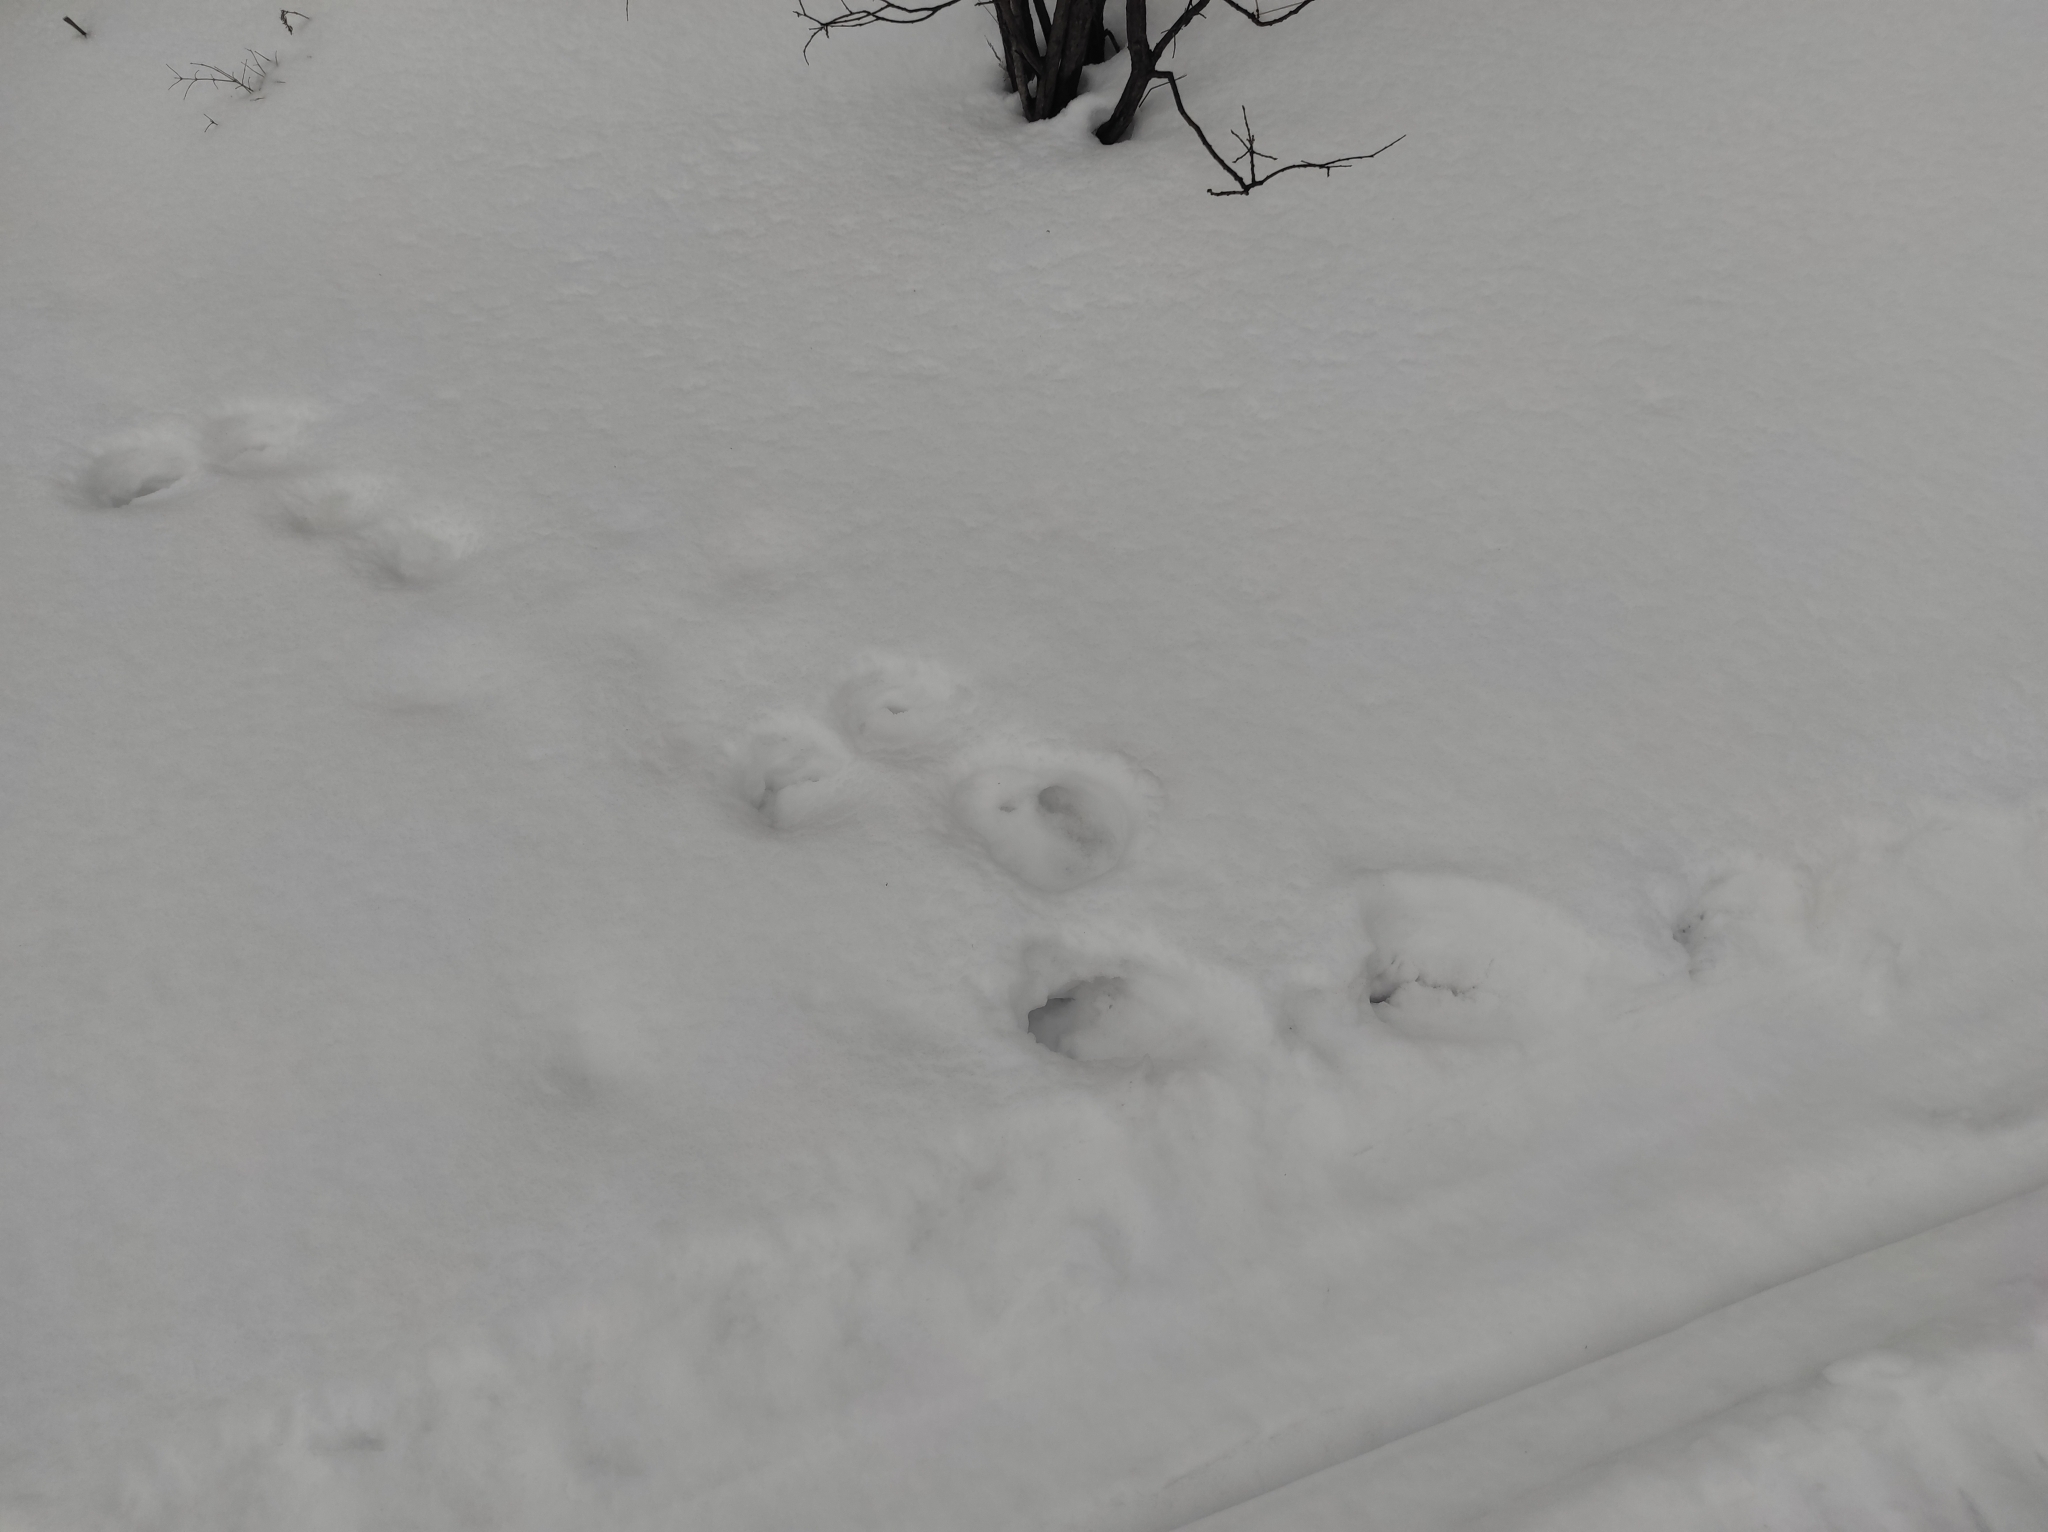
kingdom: Animalia
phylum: Chordata
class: Mammalia
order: Lagomorpha
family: Leporidae
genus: Lepus
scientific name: Lepus timidus
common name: Mountain hare
